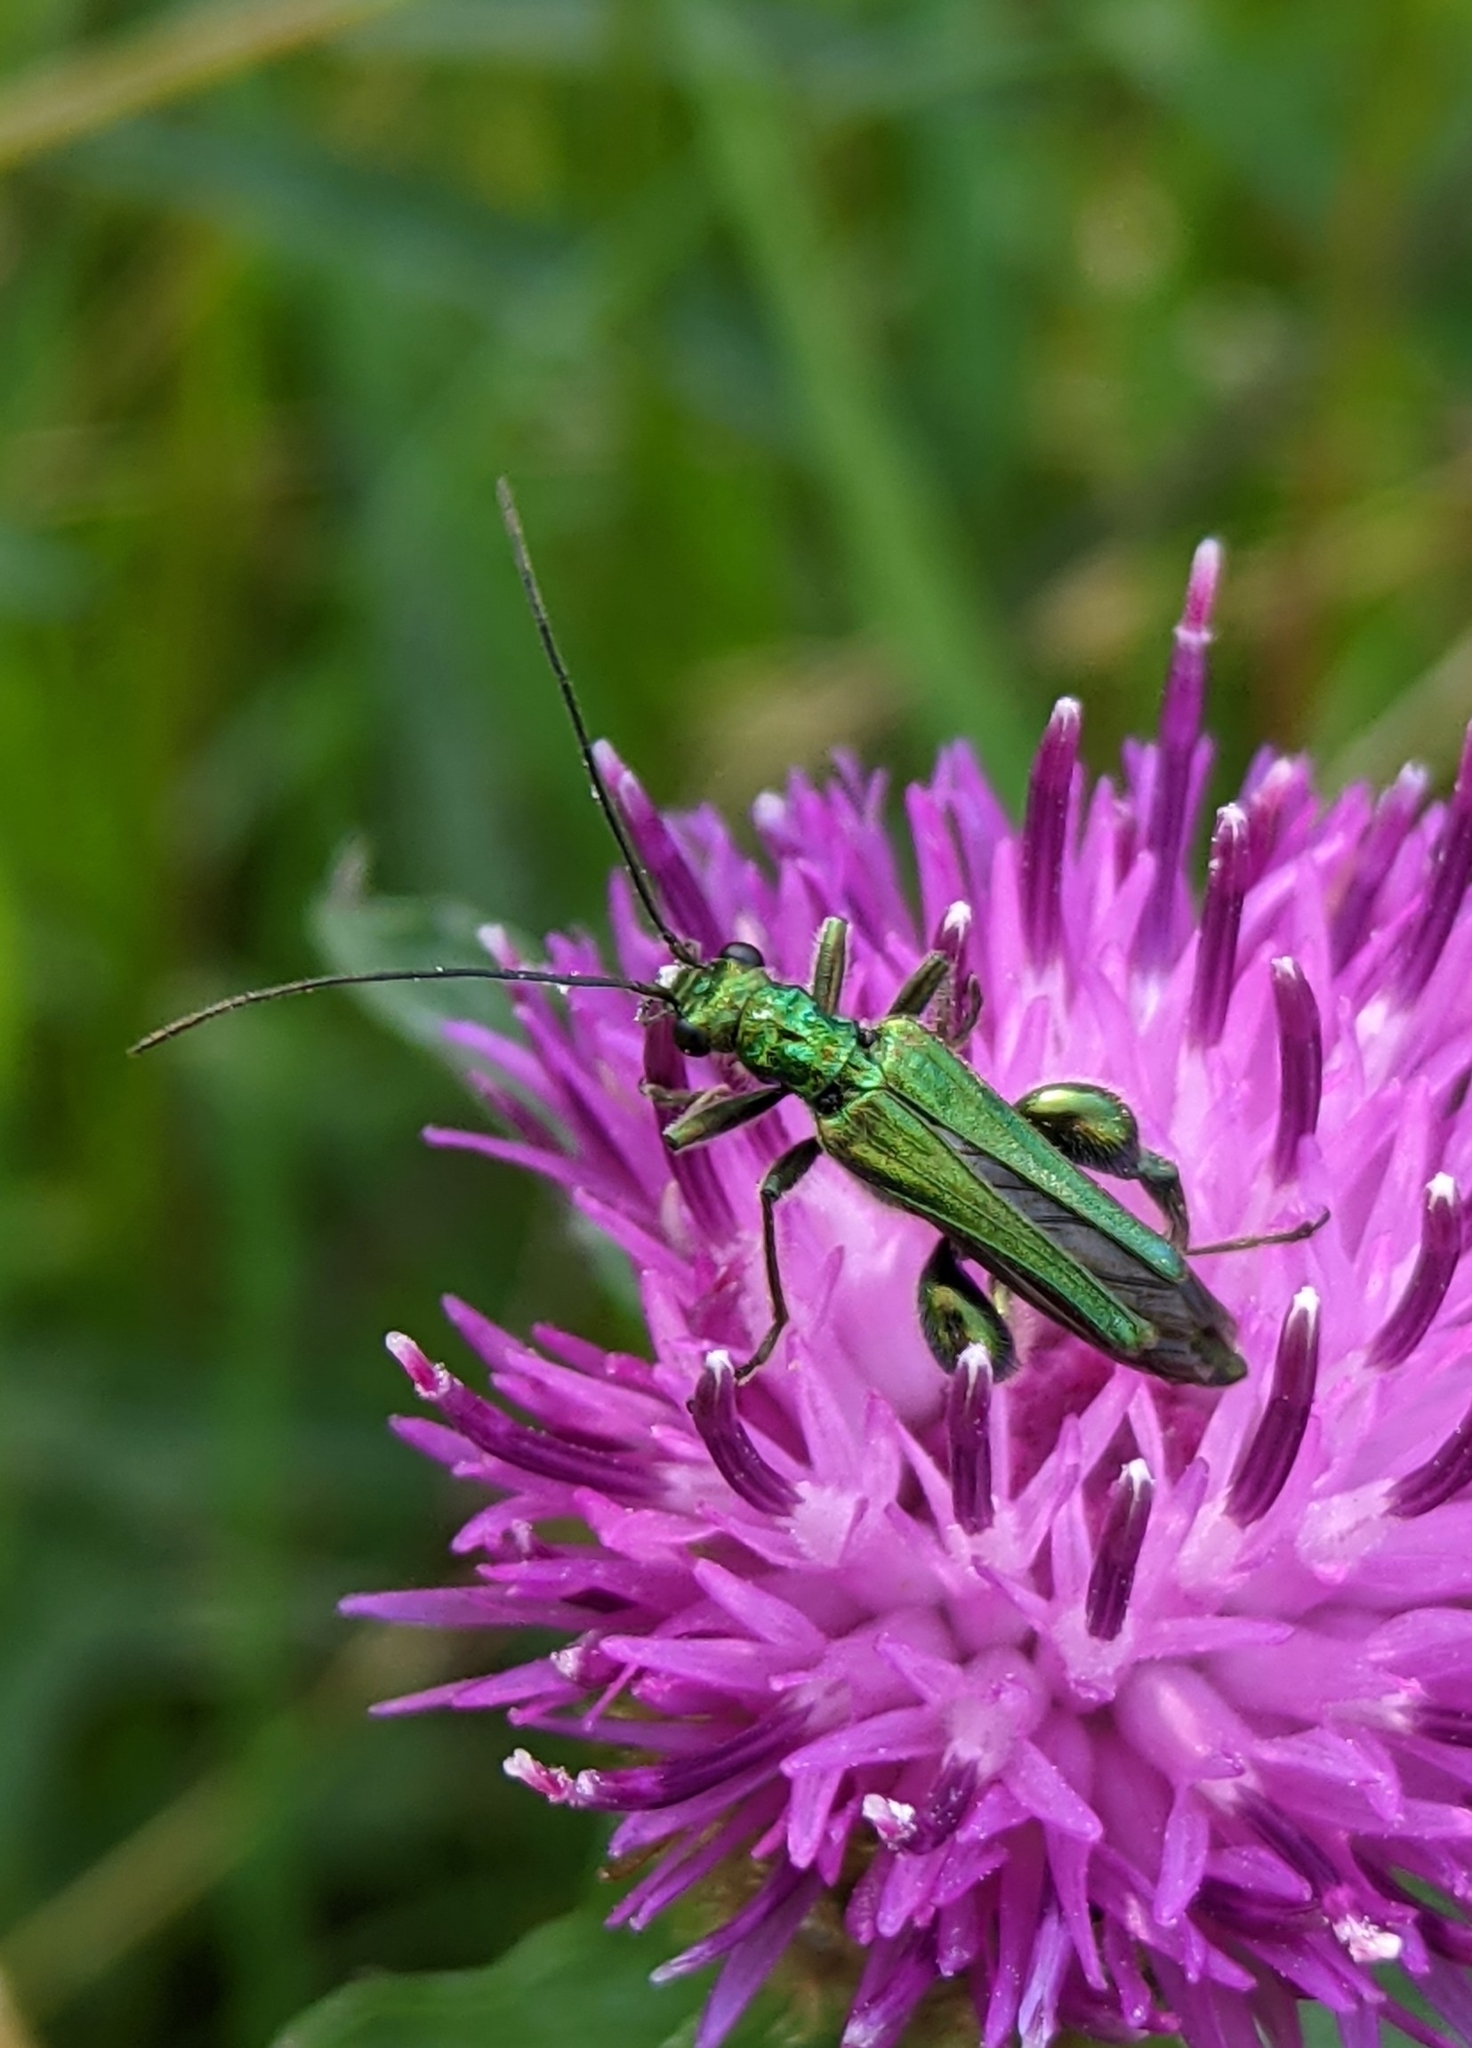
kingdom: Animalia
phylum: Arthropoda
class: Insecta
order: Coleoptera
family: Oedemeridae
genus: Oedemera
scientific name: Oedemera nobilis
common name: Swollen-thighed beetle
